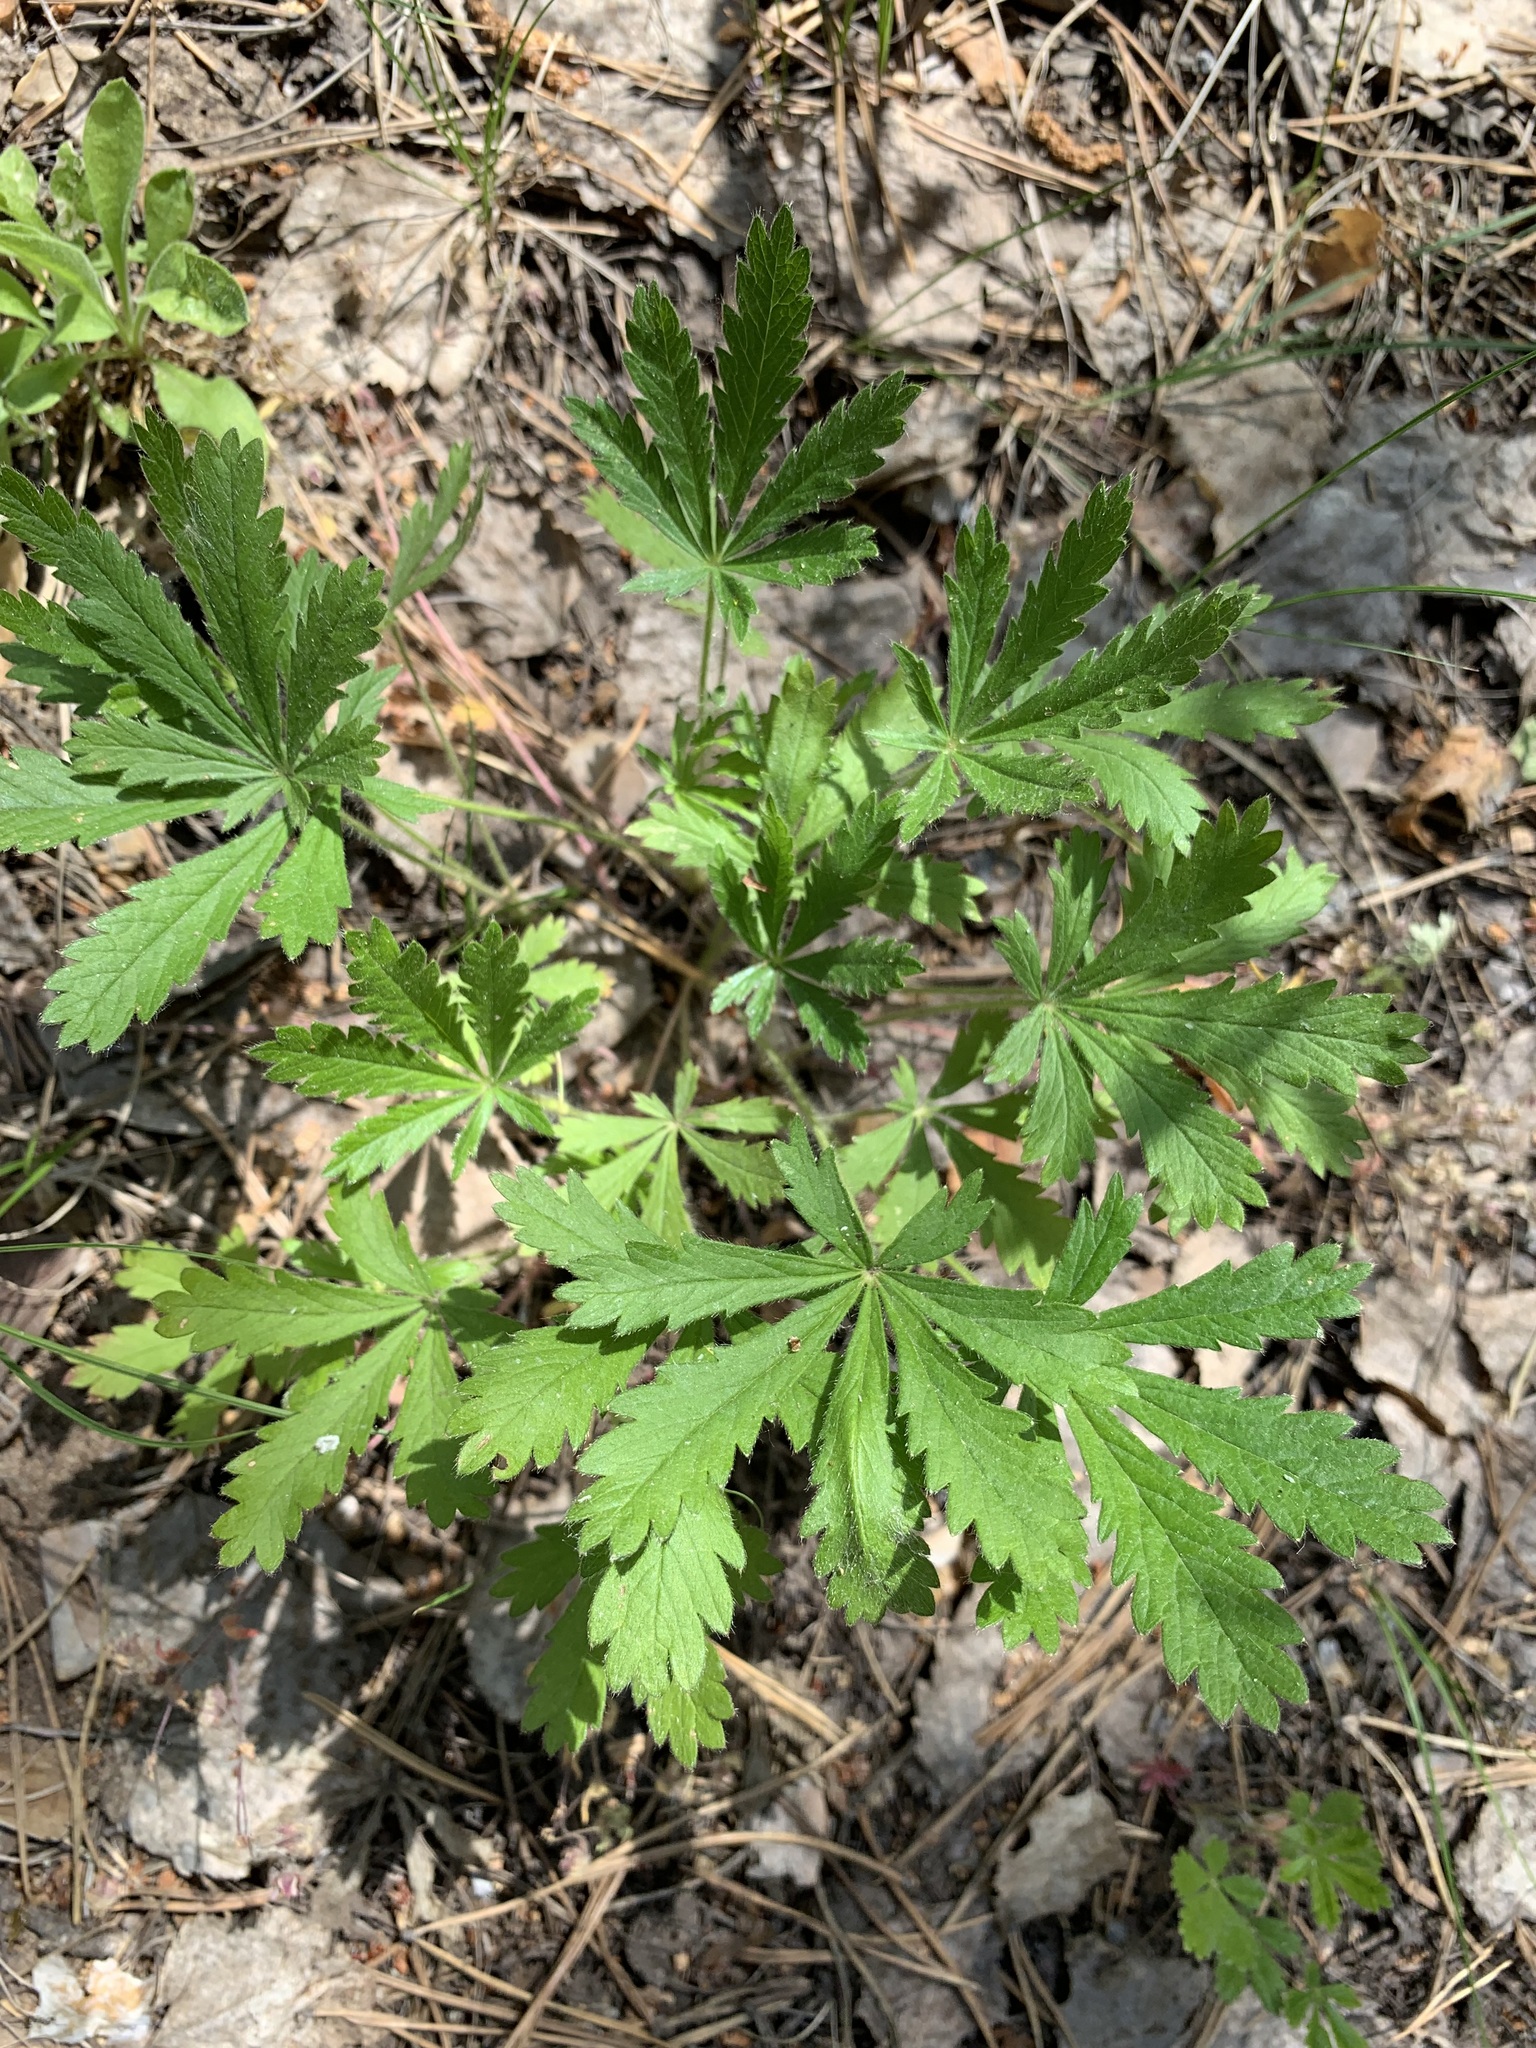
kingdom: Plantae
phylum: Tracheophyta
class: Magnoliopsida
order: Rosales
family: Rosaceae
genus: Potentilla
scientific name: Potentilla humifusa
